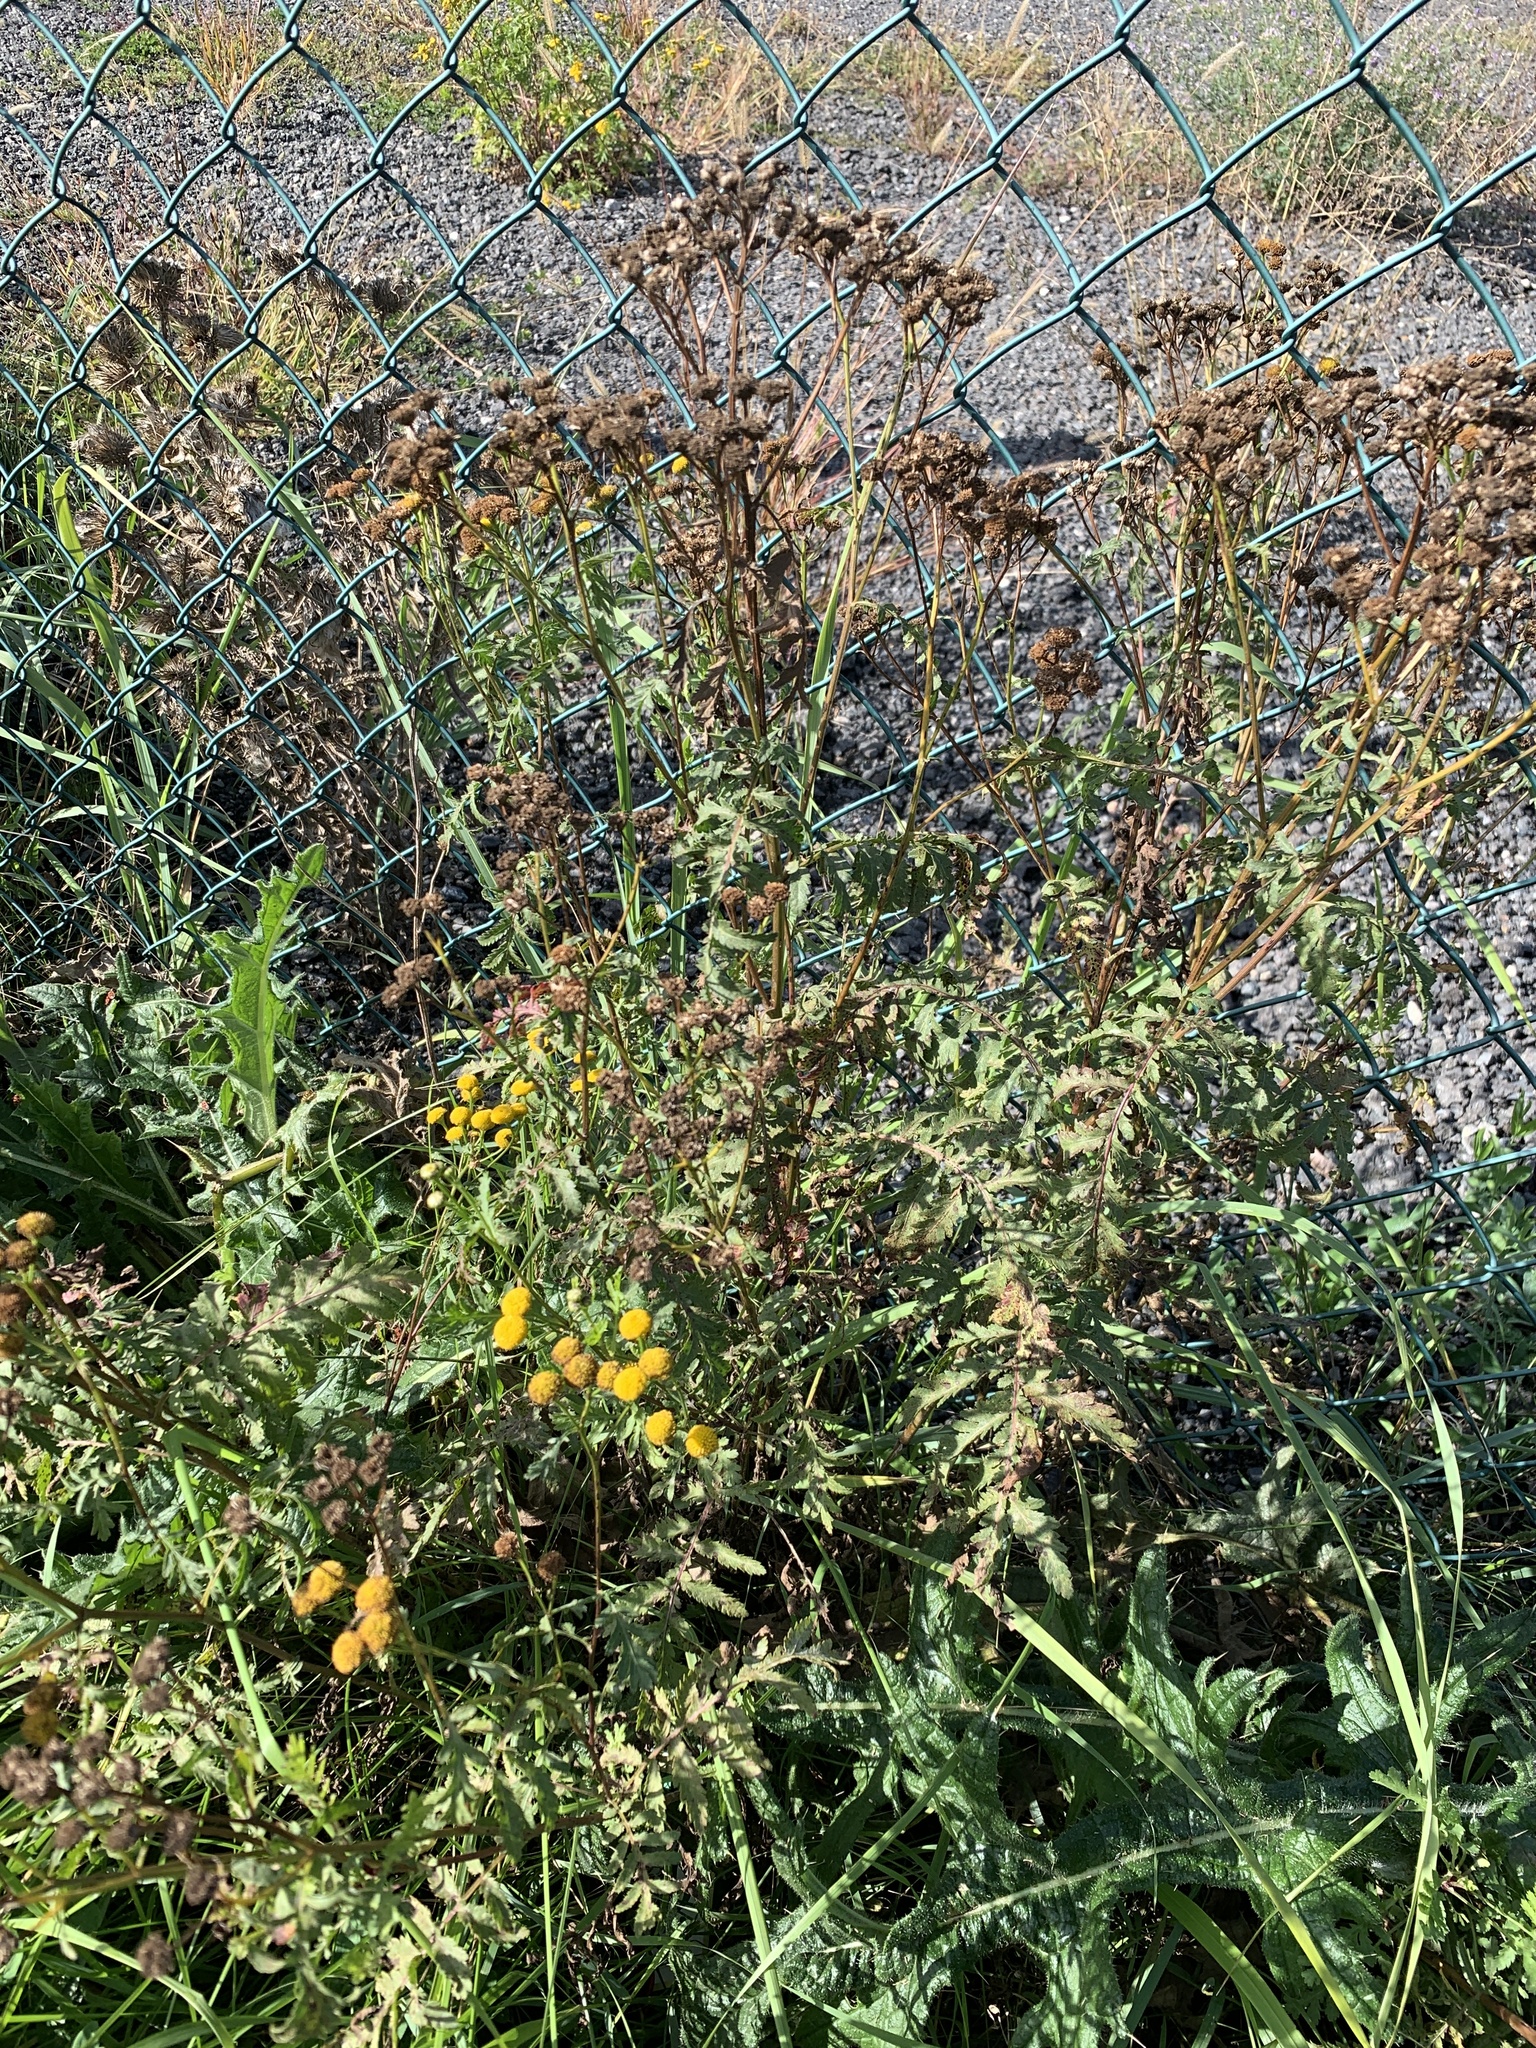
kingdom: Plantae
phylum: Tracheophyta
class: Magnoliopsida
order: Asterales
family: Asteraceae
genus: Tanacetum
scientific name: Tanacetum vulgare
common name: Common tansy
